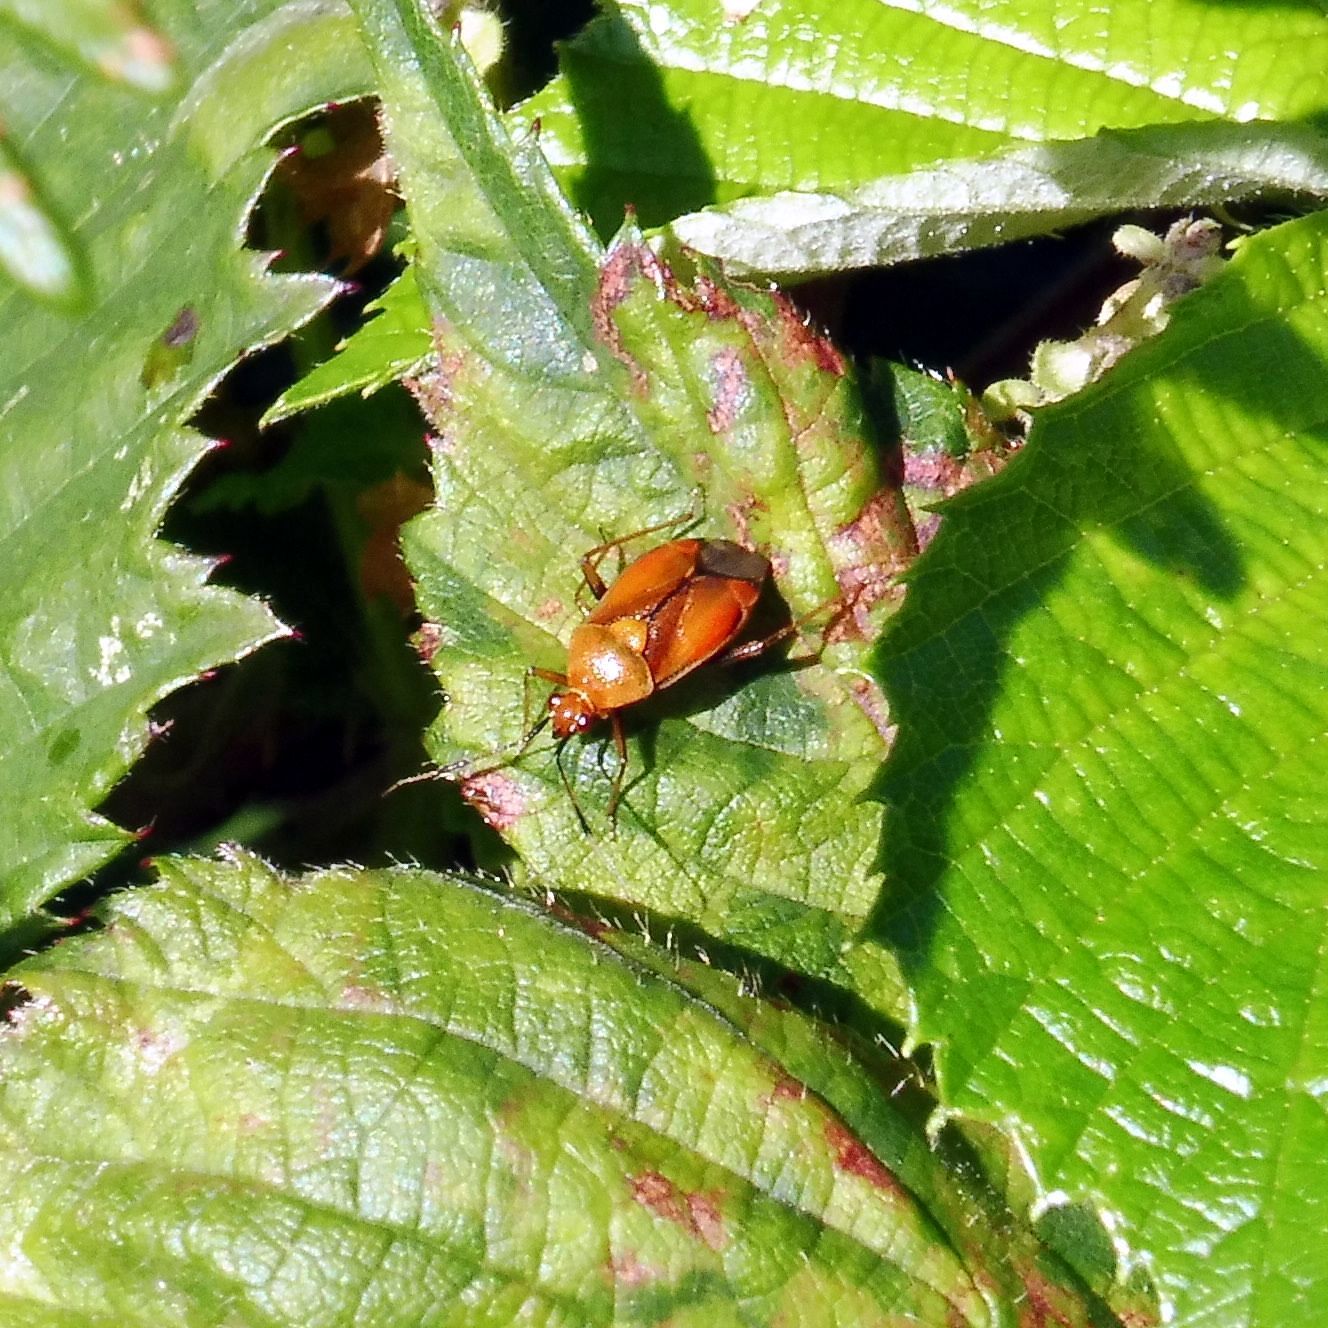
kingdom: Animalia
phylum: Arthropoda
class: Insecta
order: Hemiptera
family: Miridae
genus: Deraeocoris
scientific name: Deraeocoris ruber
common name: Plant bug
